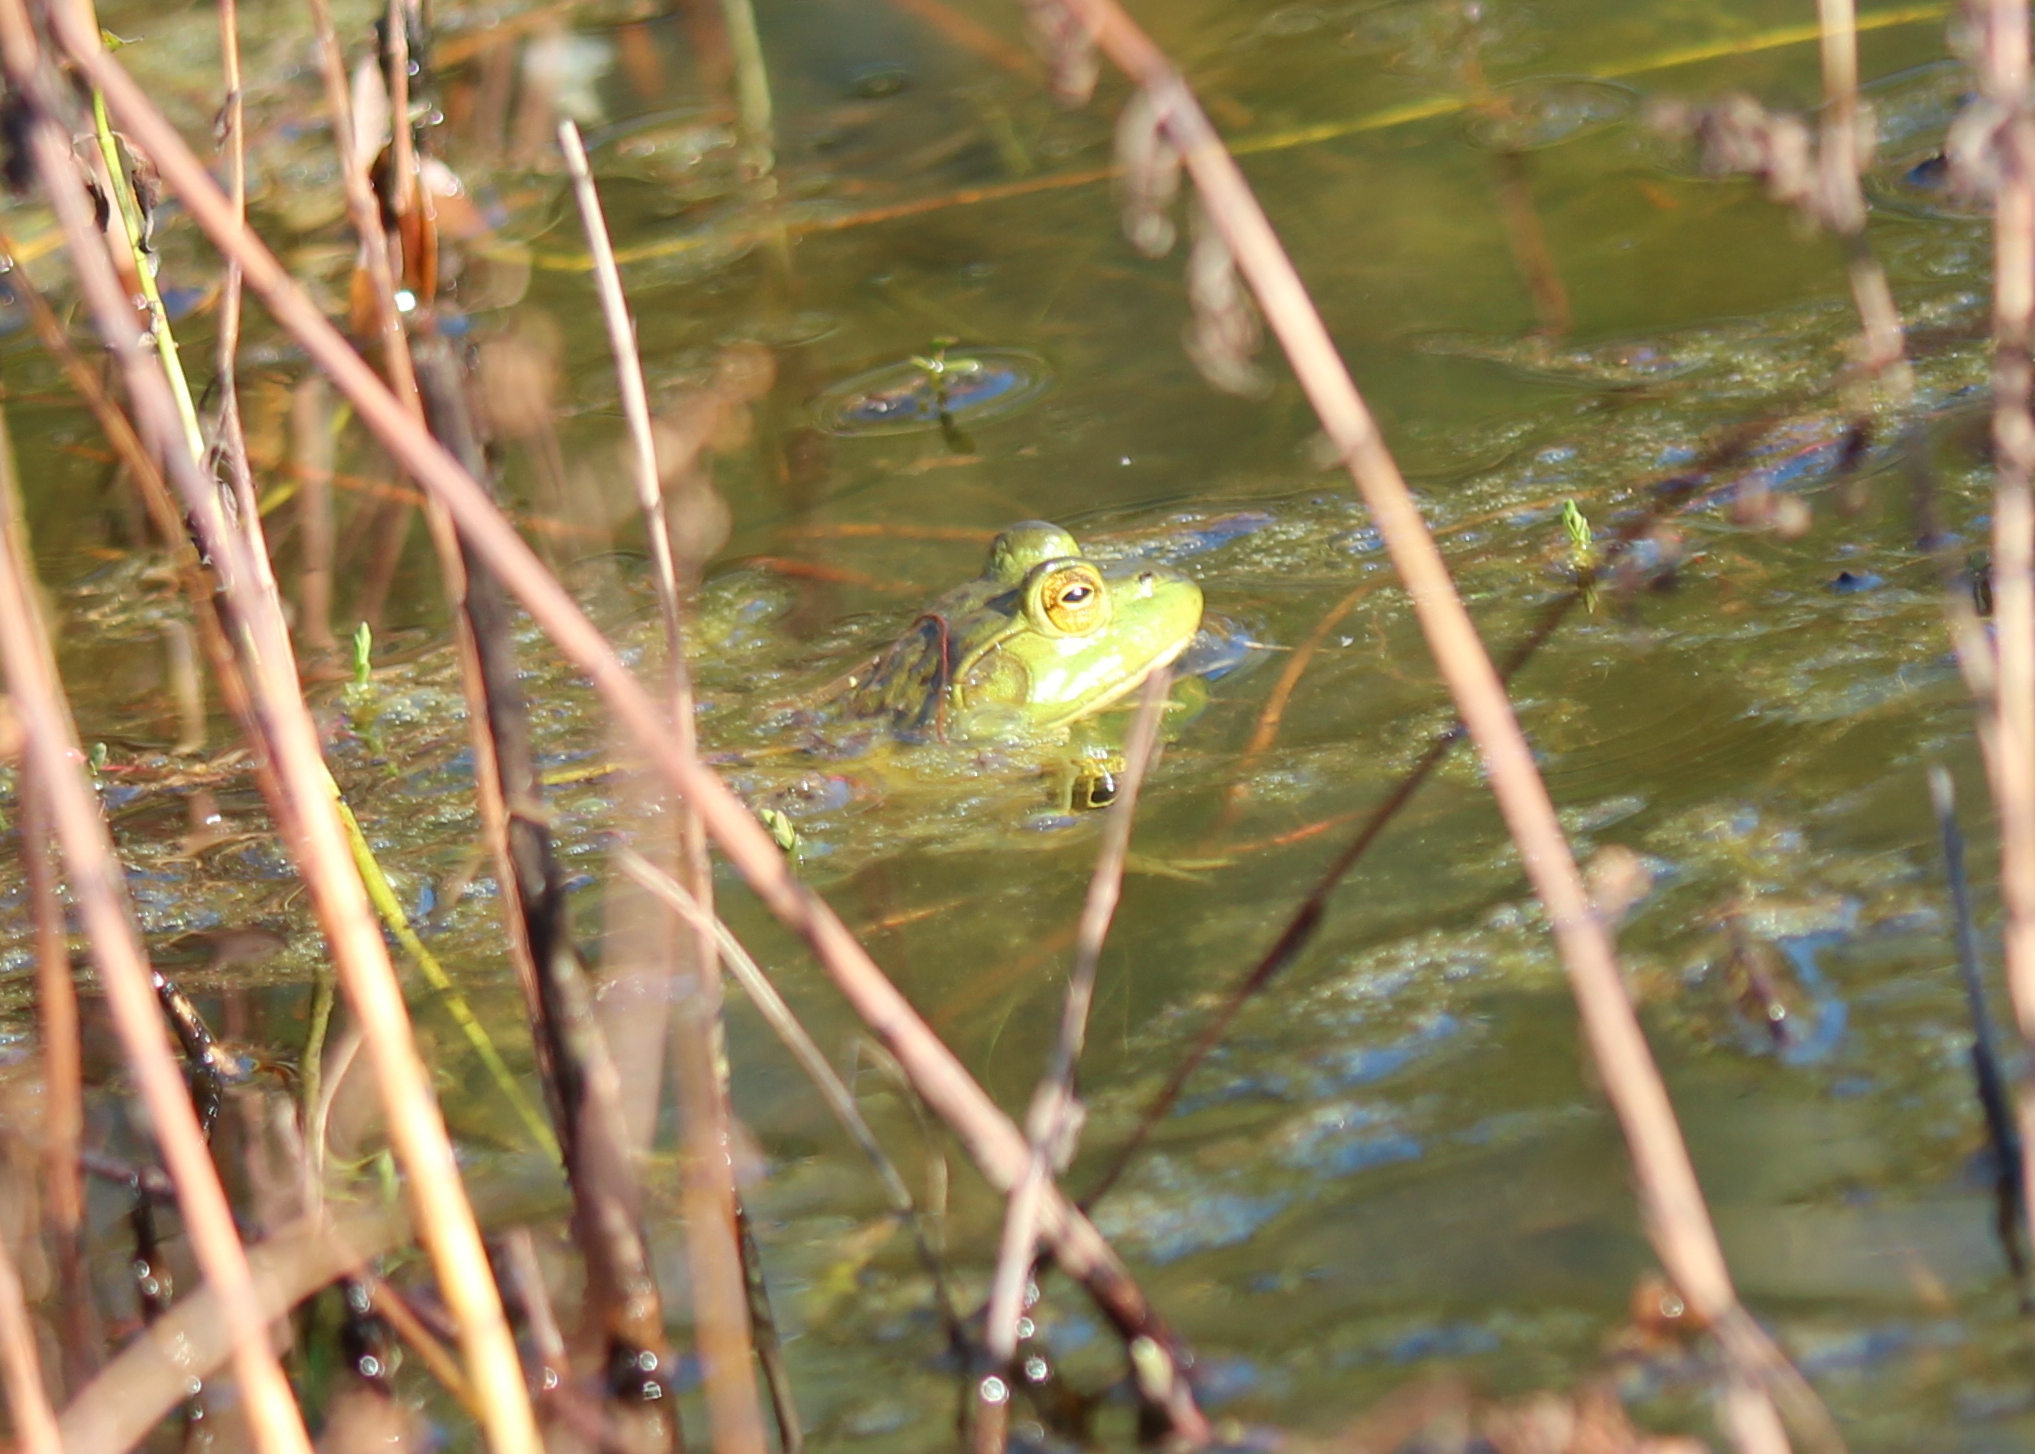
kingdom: Animalia
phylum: Chordata
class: Amphibia
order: Anura
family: Ranidae
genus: Lithobates
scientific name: Lithobates catesbeianus
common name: American bullfrog
